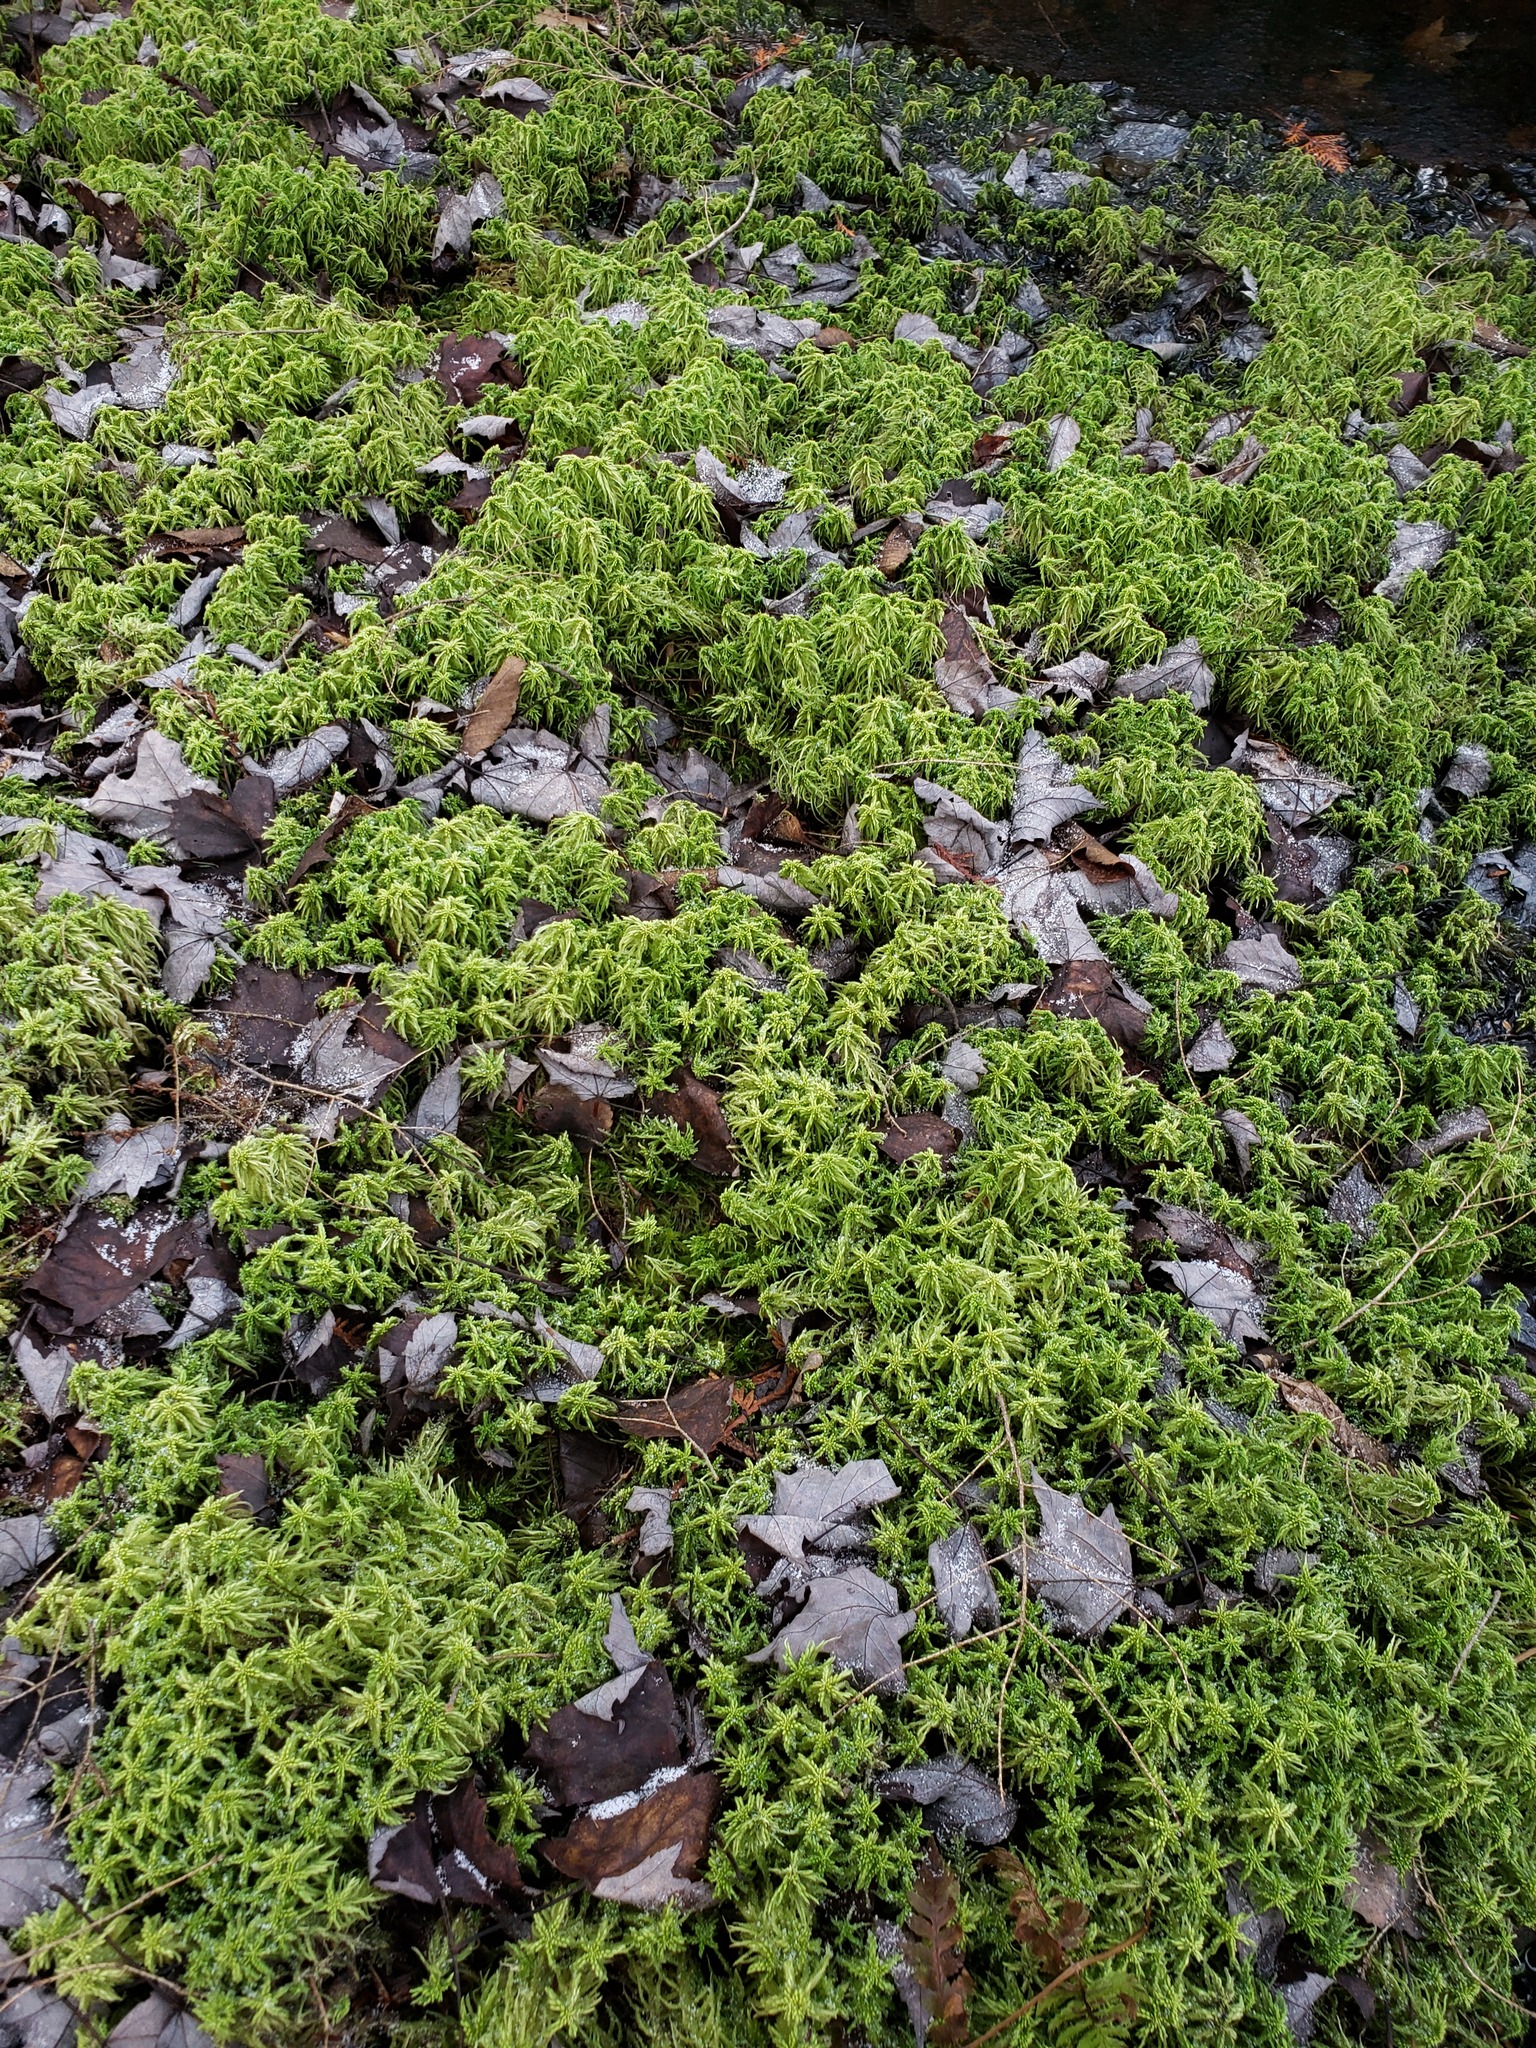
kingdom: Plantae
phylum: Bryophyta
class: Sphagnopsida
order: Sphagnales
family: Sphagnaceae
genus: Sphagnum
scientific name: Sphagnum girgensohnii
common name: Girgensohn's peat moss
